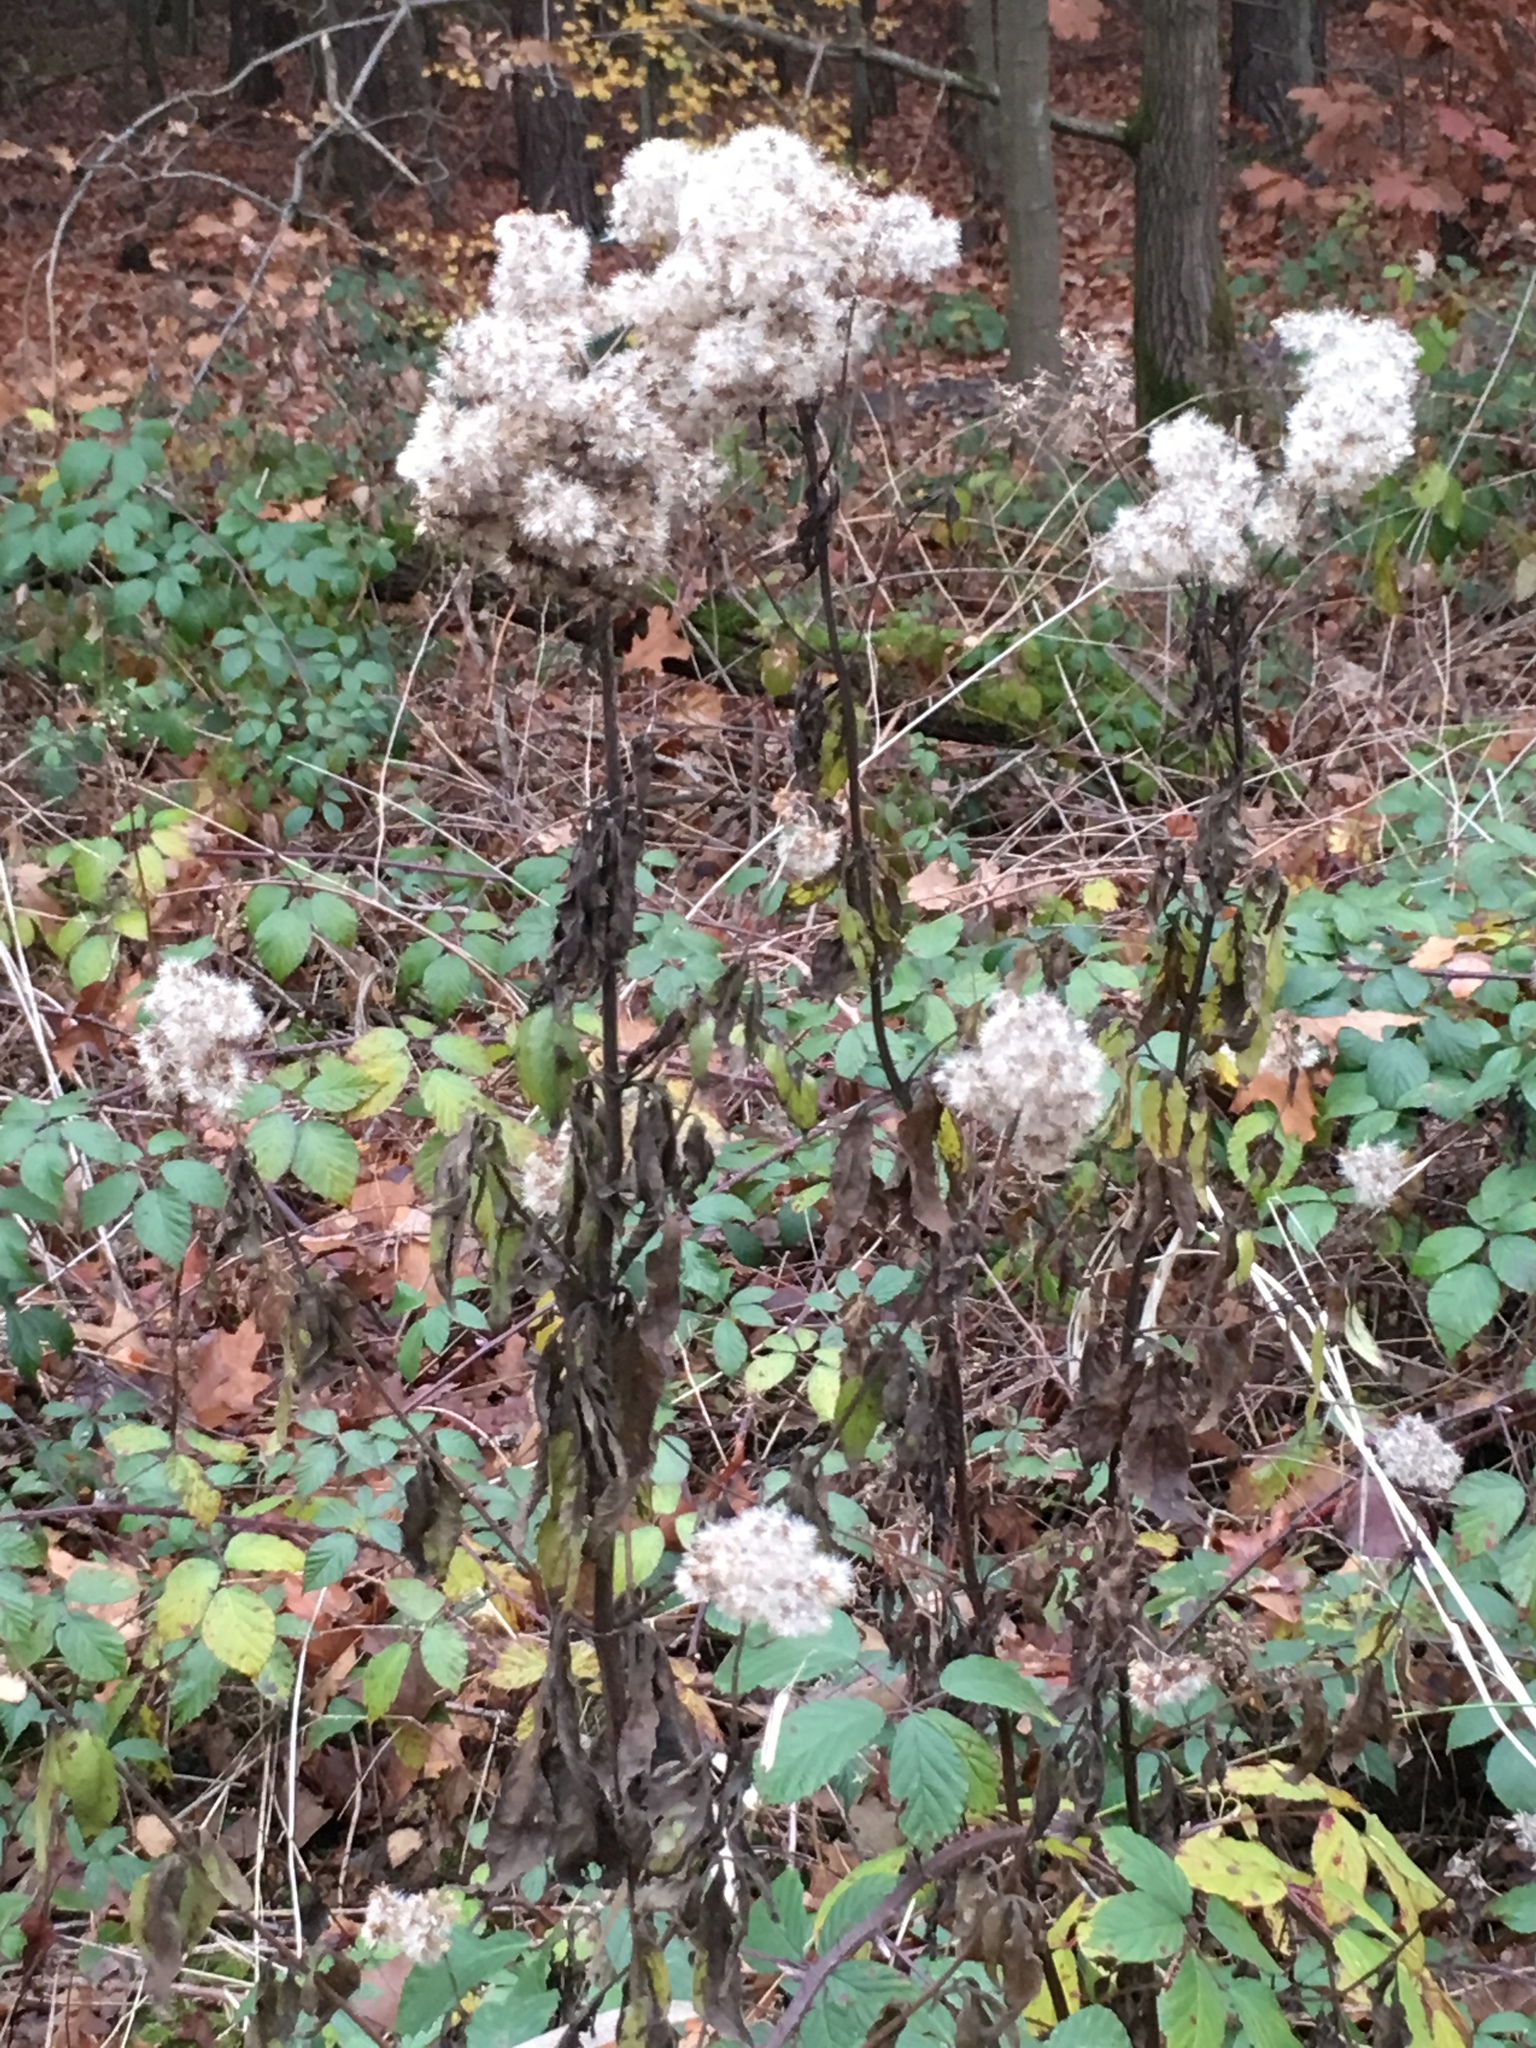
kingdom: Plantae
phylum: Tracheophyta
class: Magnoliopsida
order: Asterales
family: Asteraceae
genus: Eupatorium
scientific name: Eupatorium cannabinum
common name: Hemp-agrimony
